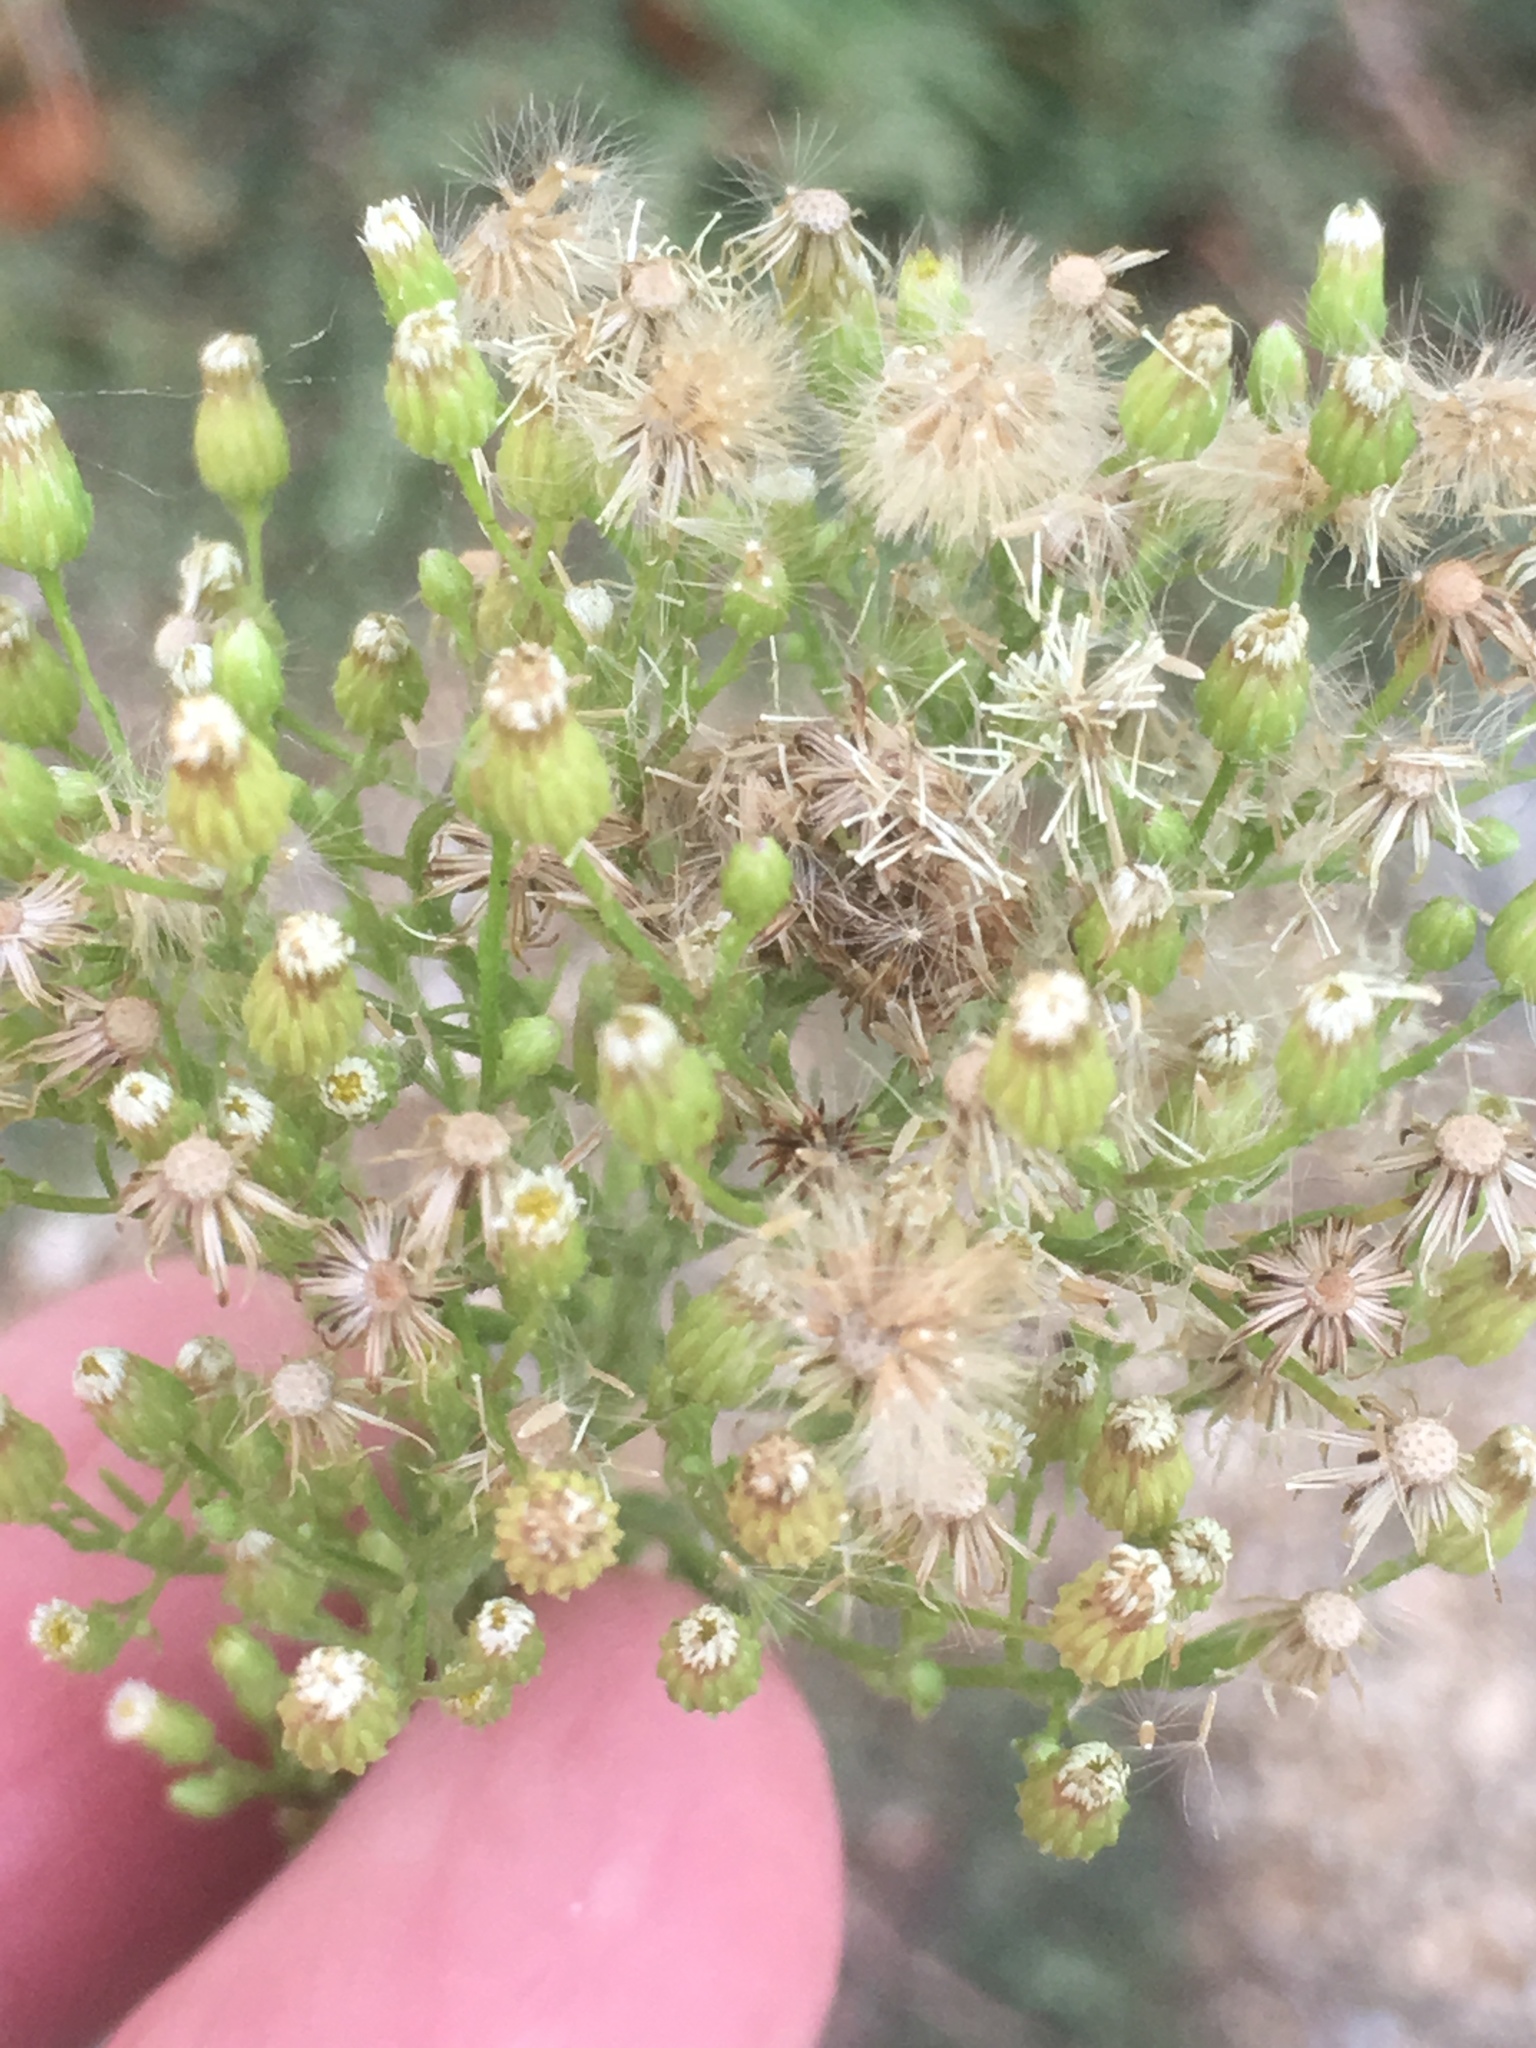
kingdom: Plantae
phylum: Tracheophyta
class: Magnoliopsida
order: Asterales
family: Asteraceae
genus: Erigeron
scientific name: Erigeron canadensis
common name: Canadian fleabane
